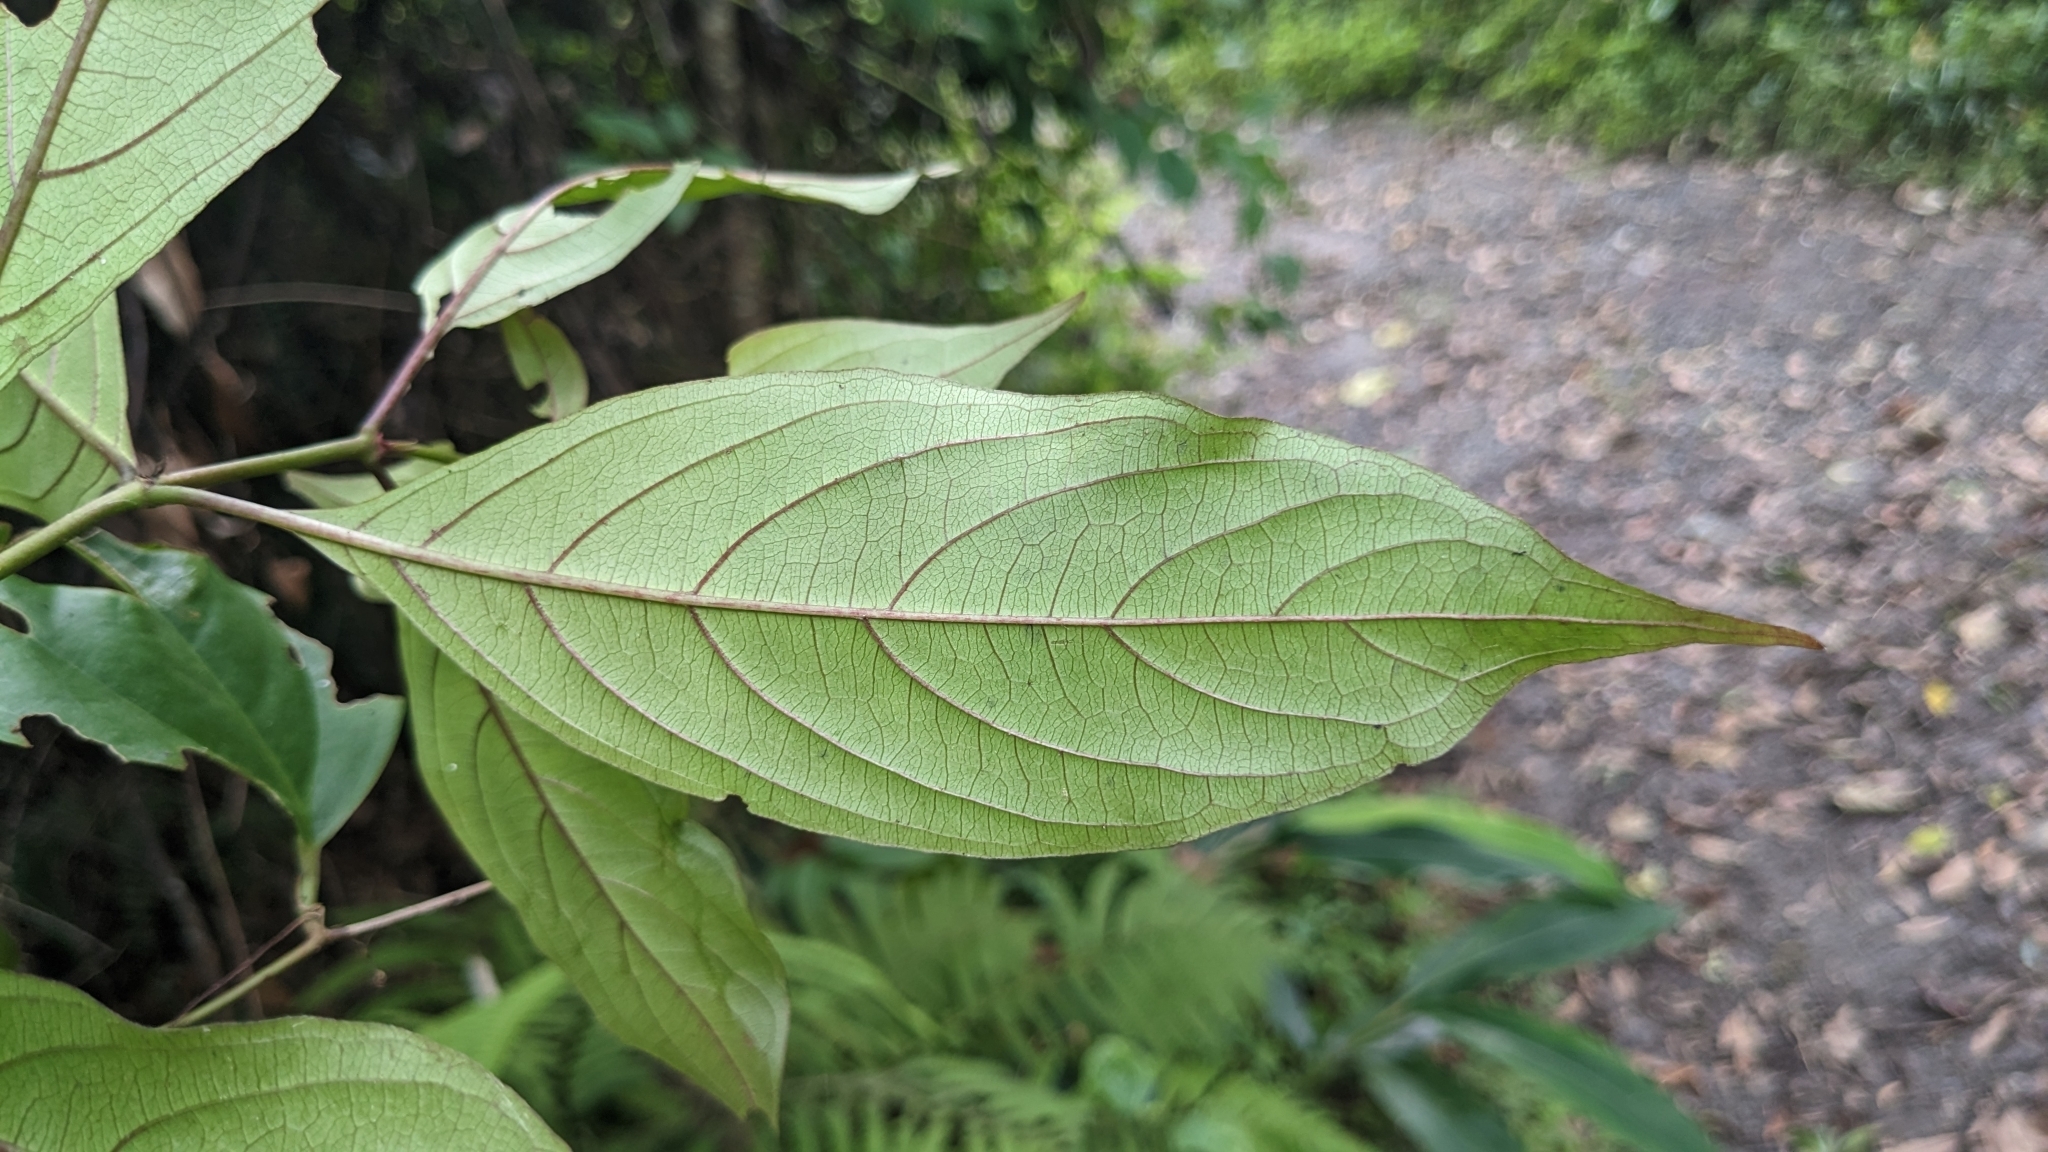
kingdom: Plantae
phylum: Tracheophyta
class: Magnoliopsida
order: Gentianales
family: Rubiaceae
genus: Mussaenda
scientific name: Mussaenda parviflora
